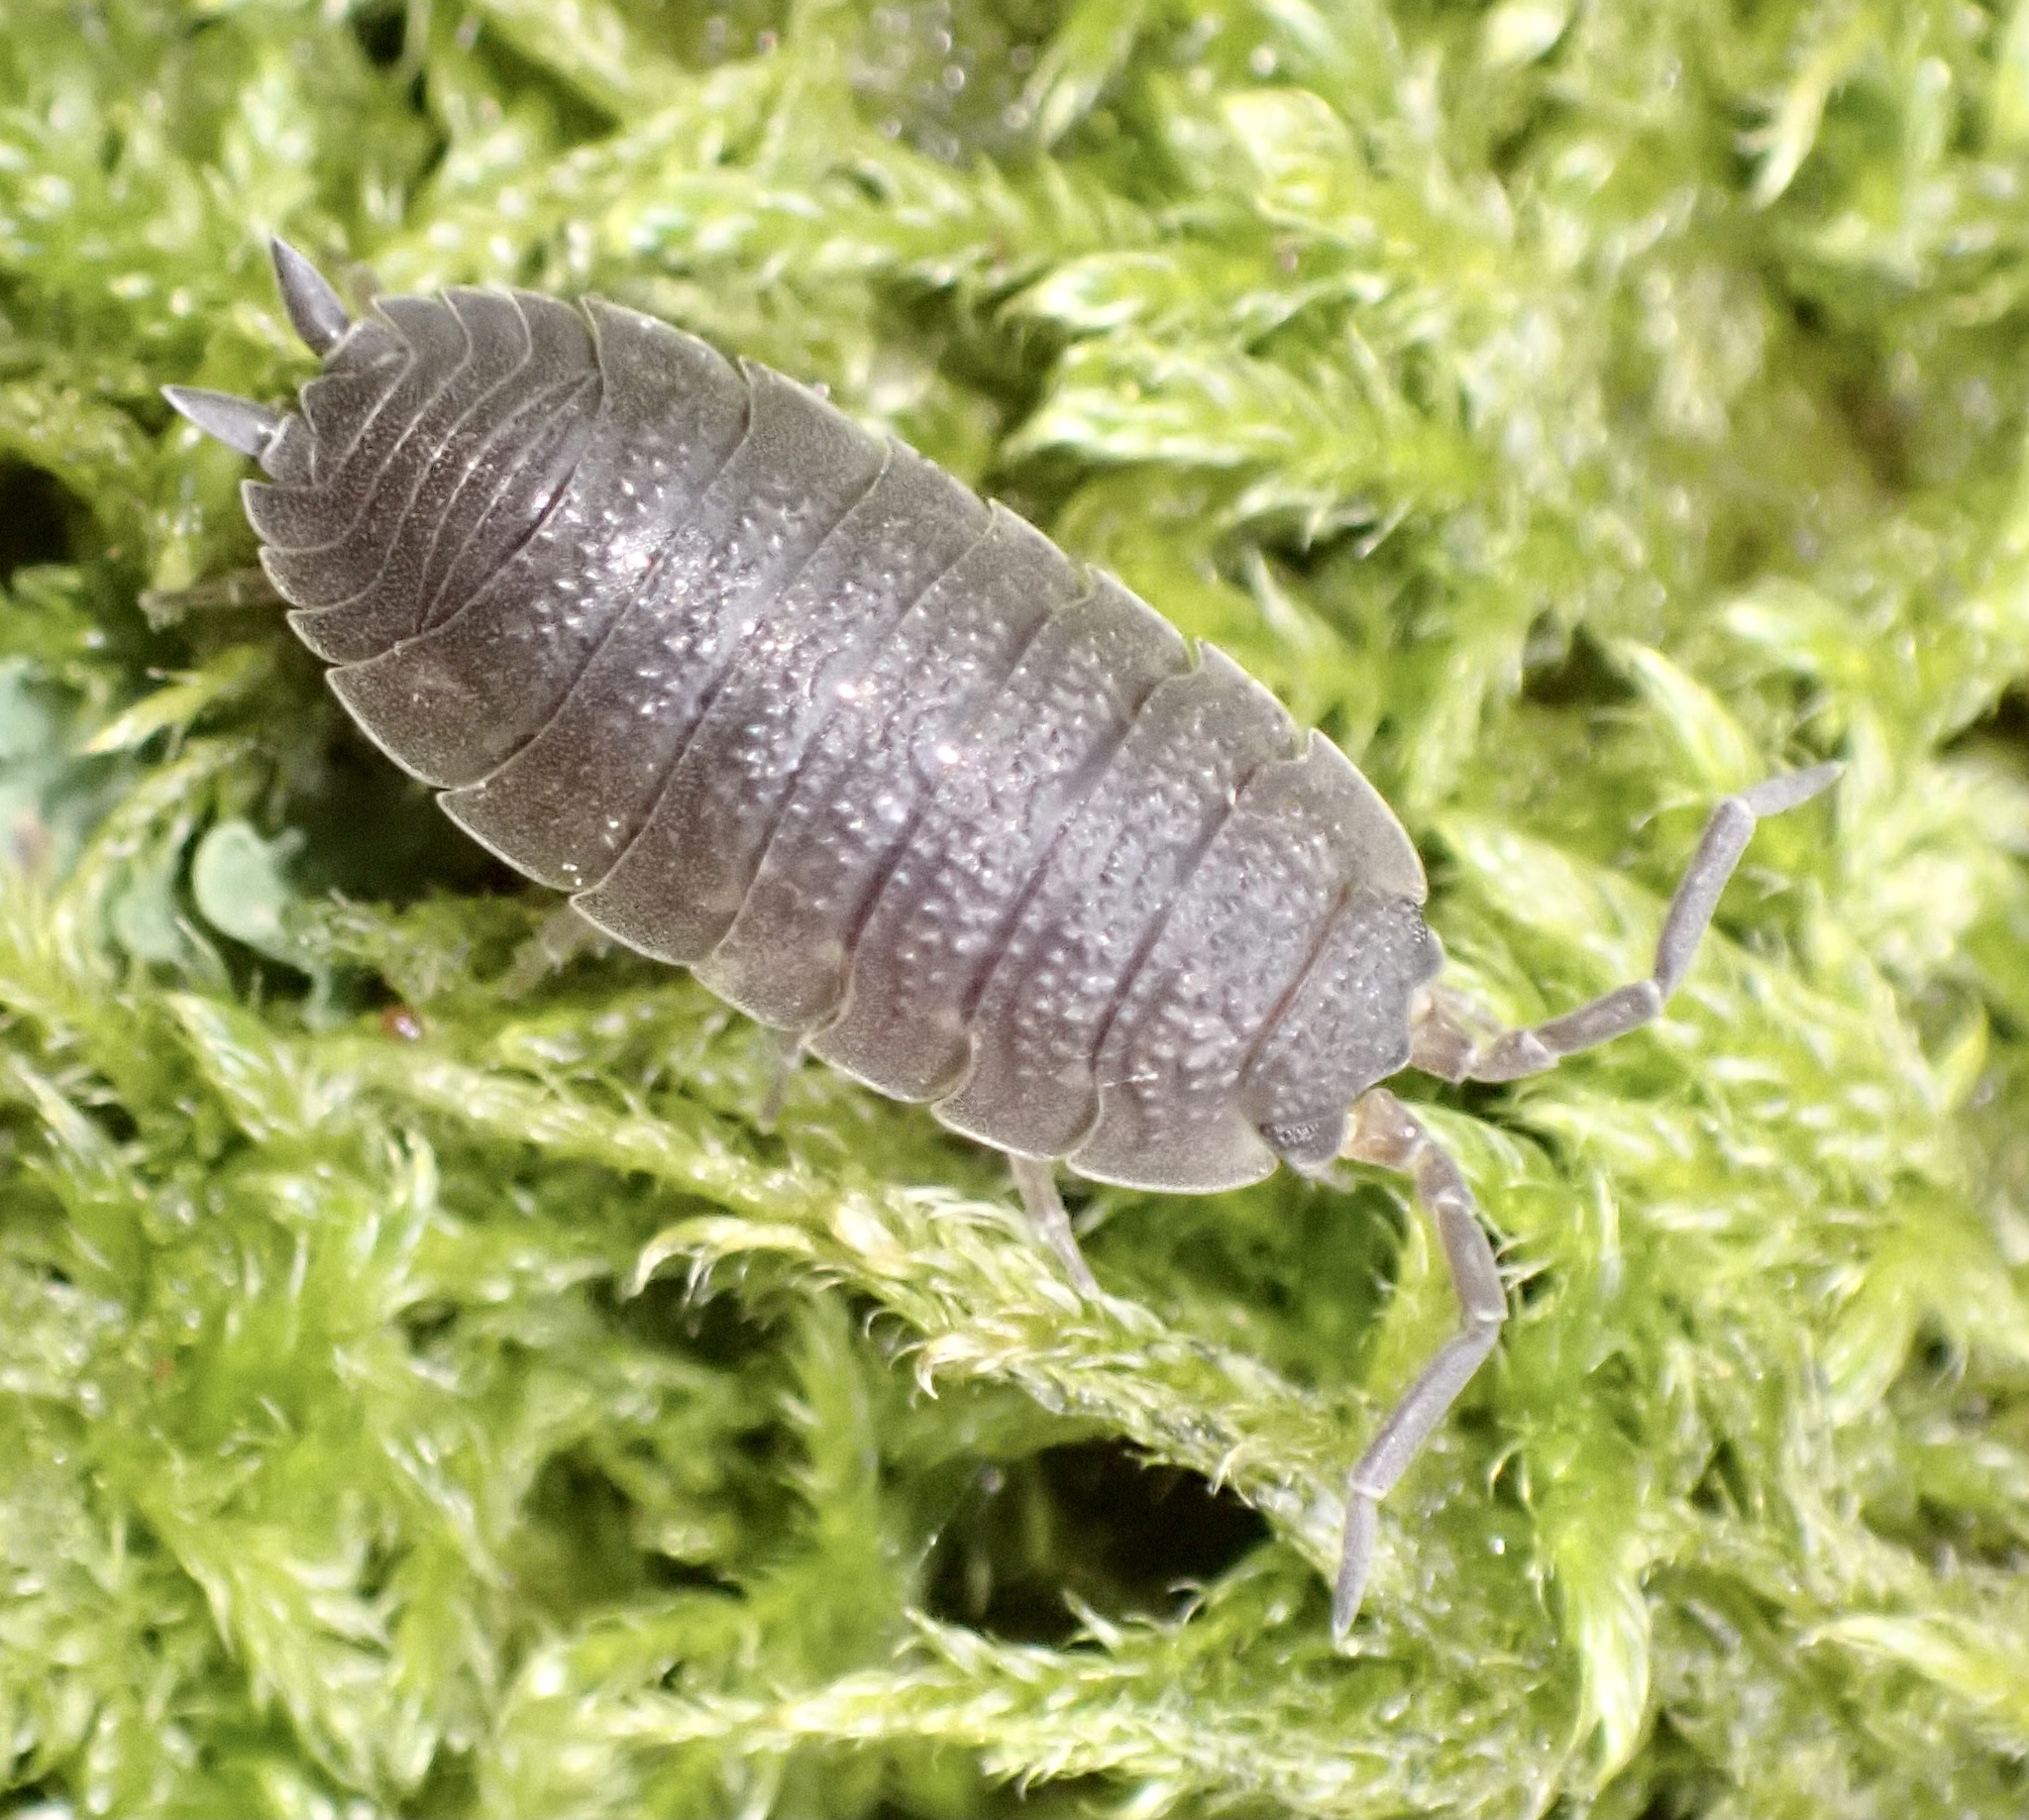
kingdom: Animalia
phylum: Arthropoda
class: Malacostraca
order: Isopoda
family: Porcellionidae
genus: Porcellio
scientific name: Porcellio scaber
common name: Common rough woodlouse
